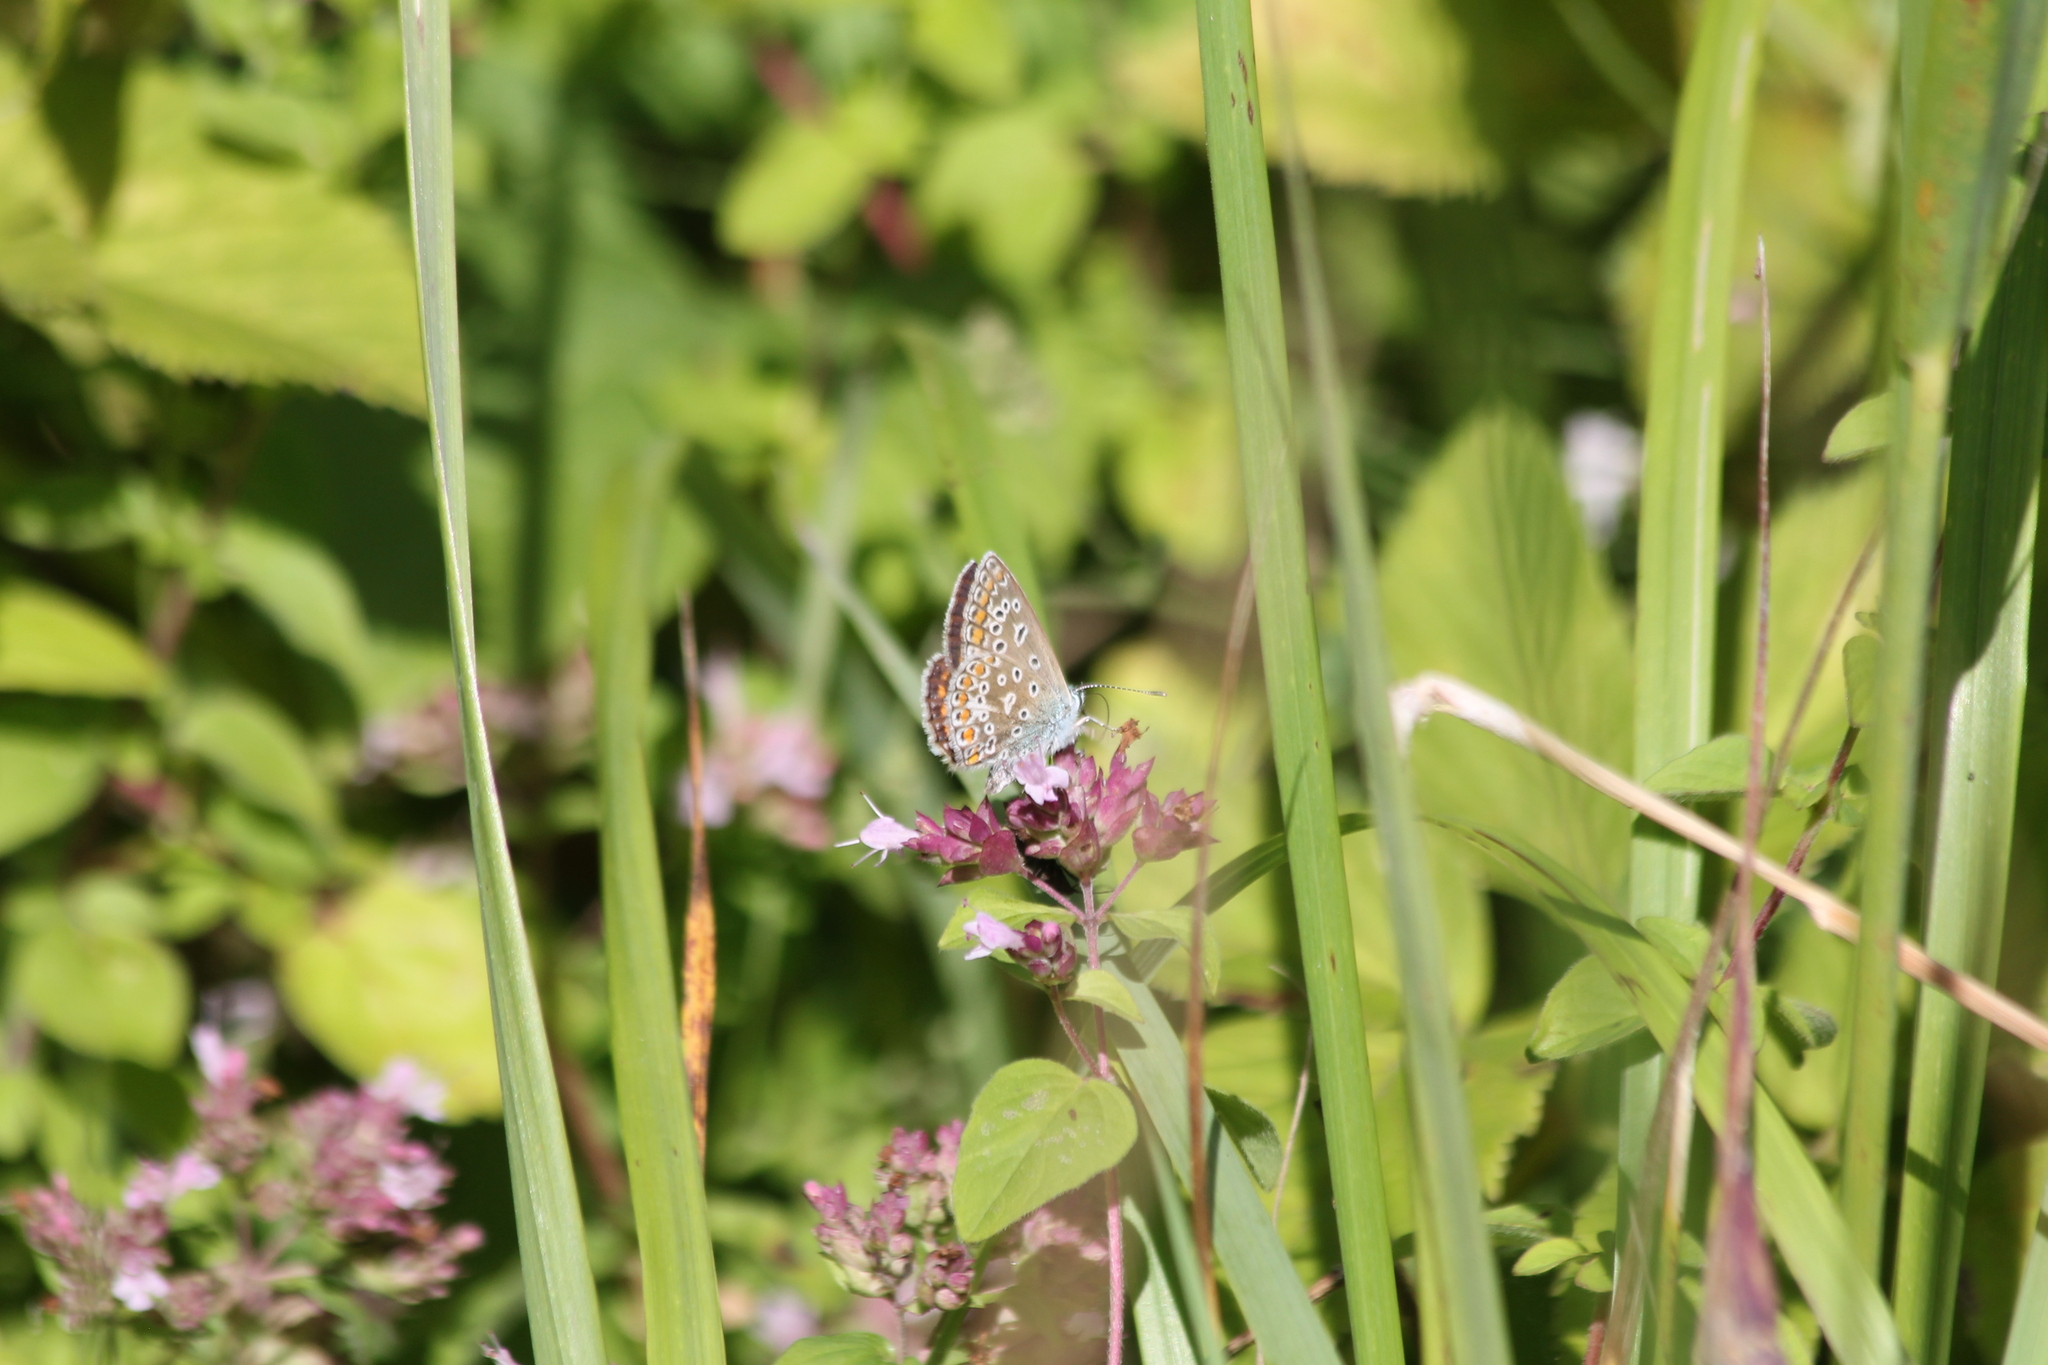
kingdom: Animalia
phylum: Arthropoda
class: Insecta
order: Lepidoptera
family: Lycaenidae
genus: Polyommatus
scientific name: Polyommatus icarus
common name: Common blue
